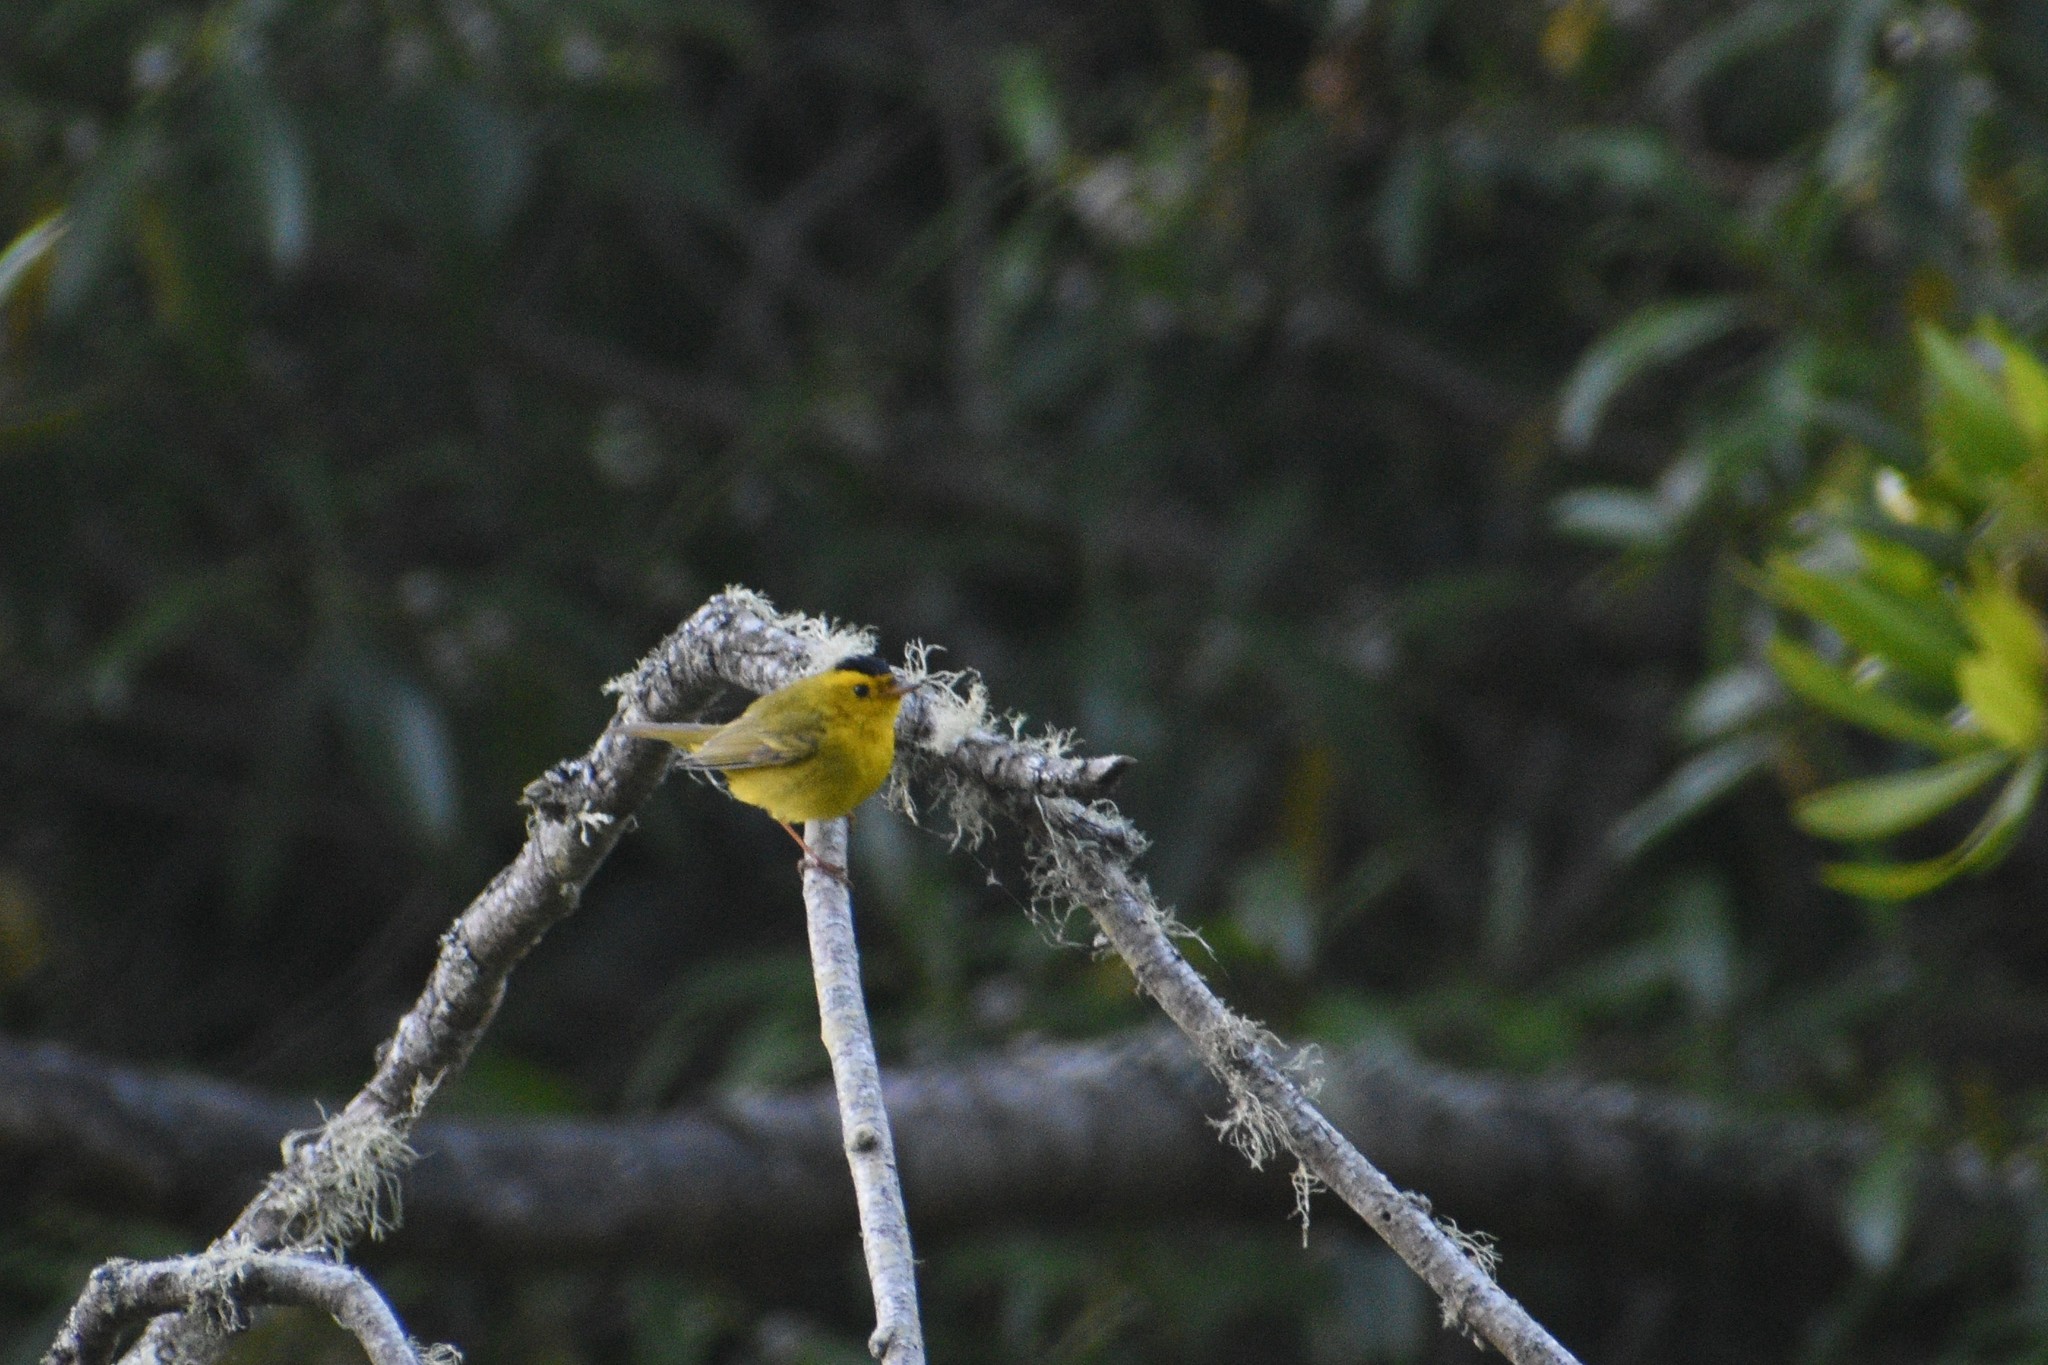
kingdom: Animalia
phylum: Chordata
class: Aves
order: Passeriformes
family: Parulidae
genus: Cardellina
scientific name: Cardellina pusilla
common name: Wilson's warbler
